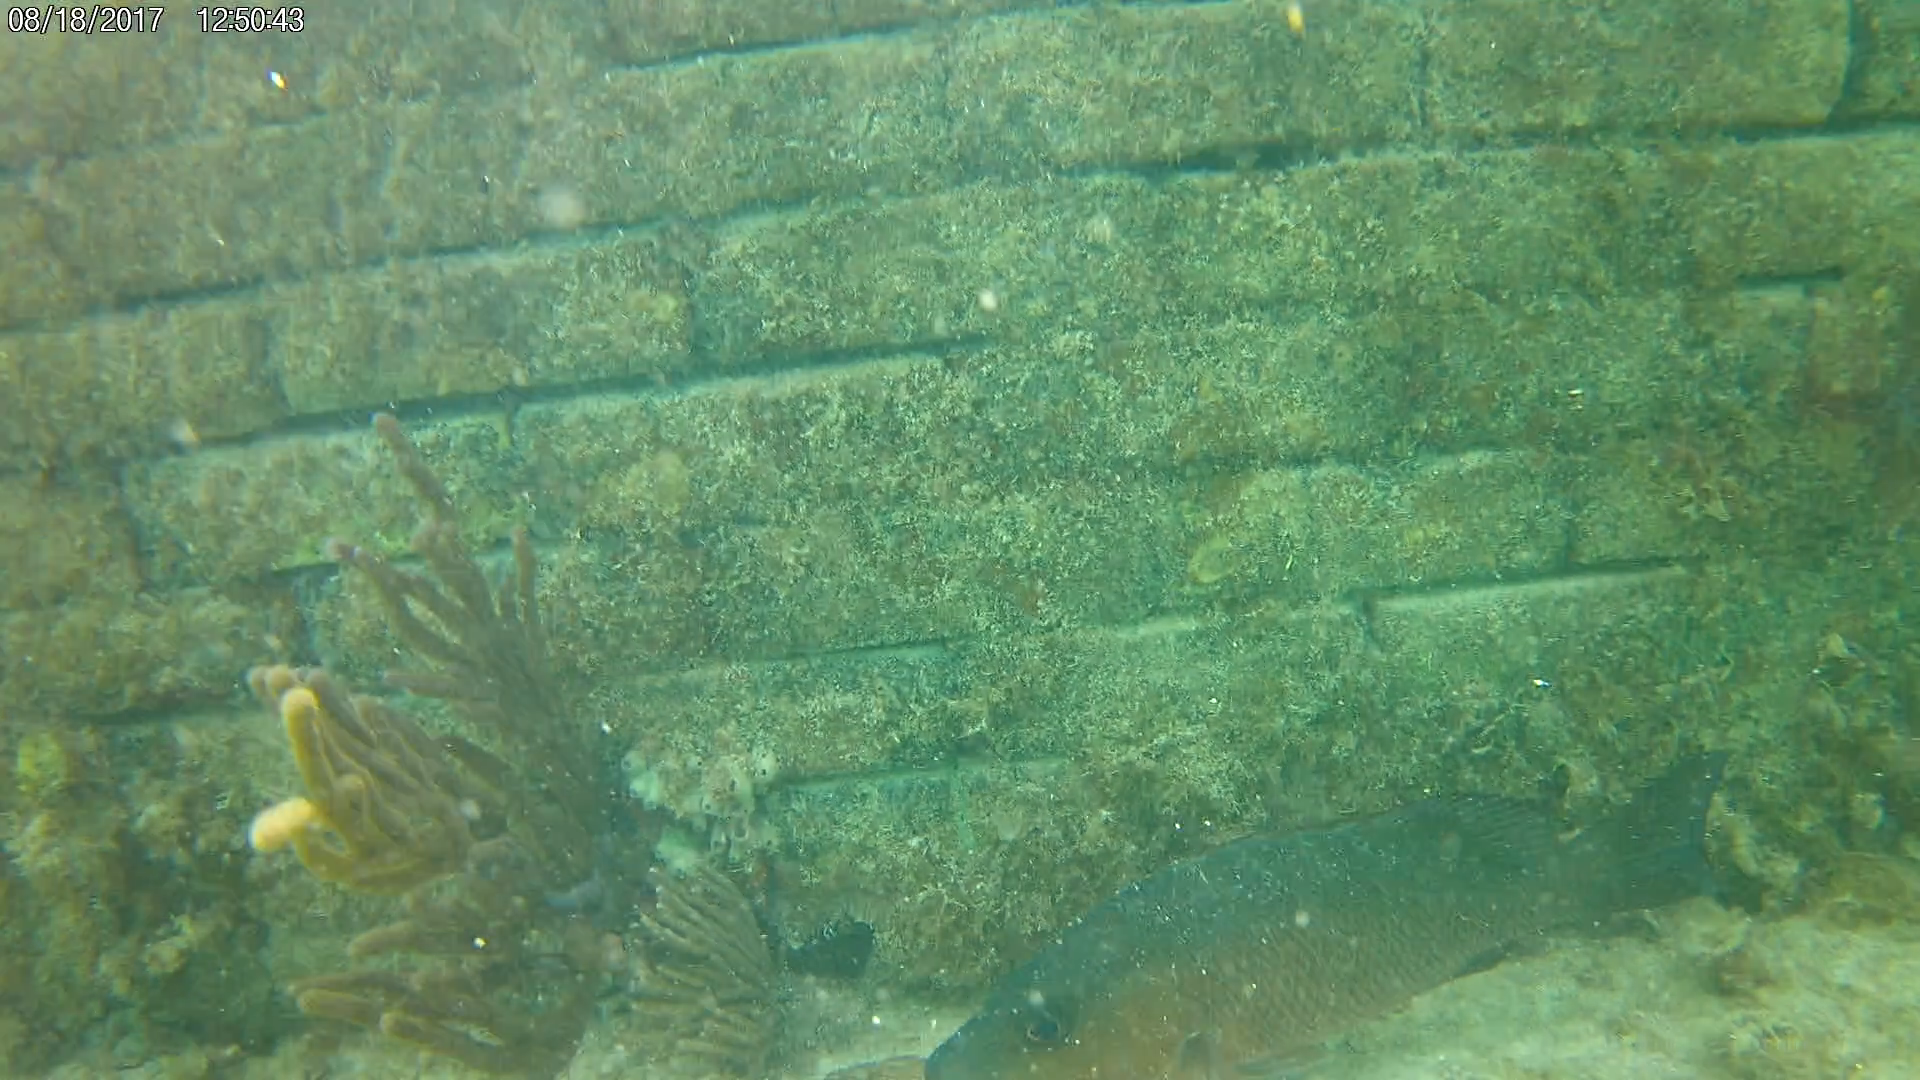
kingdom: Animalia
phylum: Chordata
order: Perciformes
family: Lutjanidae
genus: Lutjanus
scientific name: Lutjanus griseus
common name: Gray snapper
